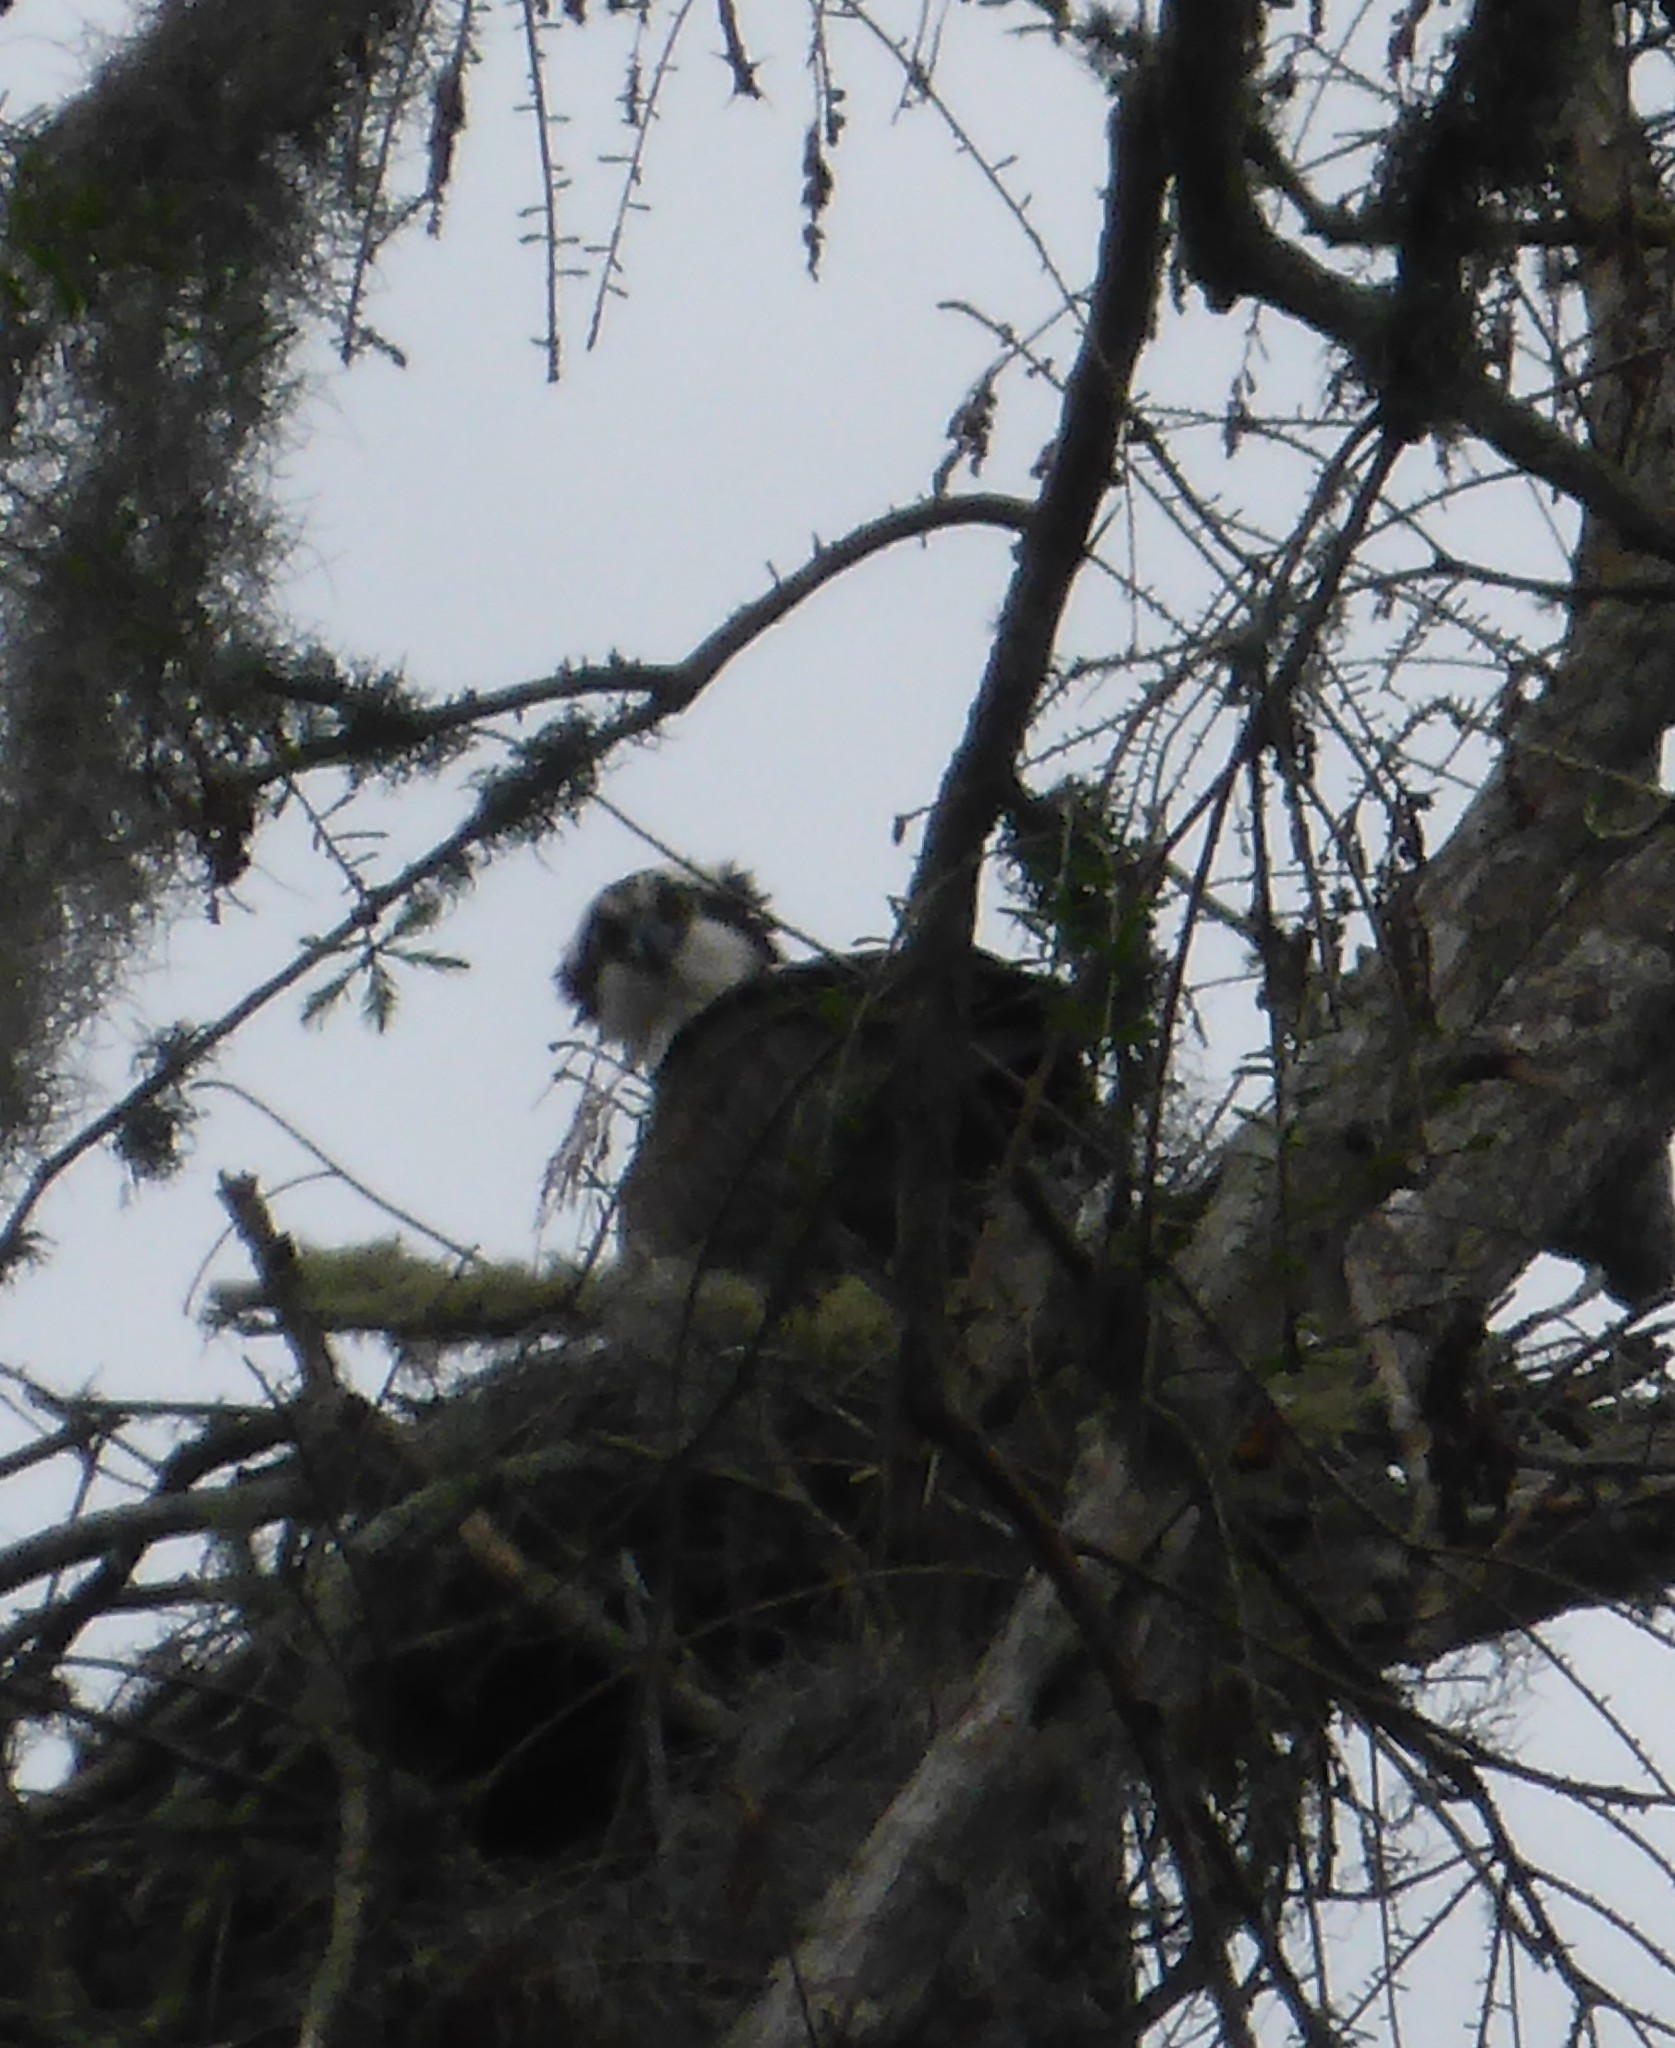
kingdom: Animalia
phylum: Chordata
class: Aves
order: Accipitriformes
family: Pandionidae
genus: Pandion
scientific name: Pandion haliaetus
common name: Osprey
